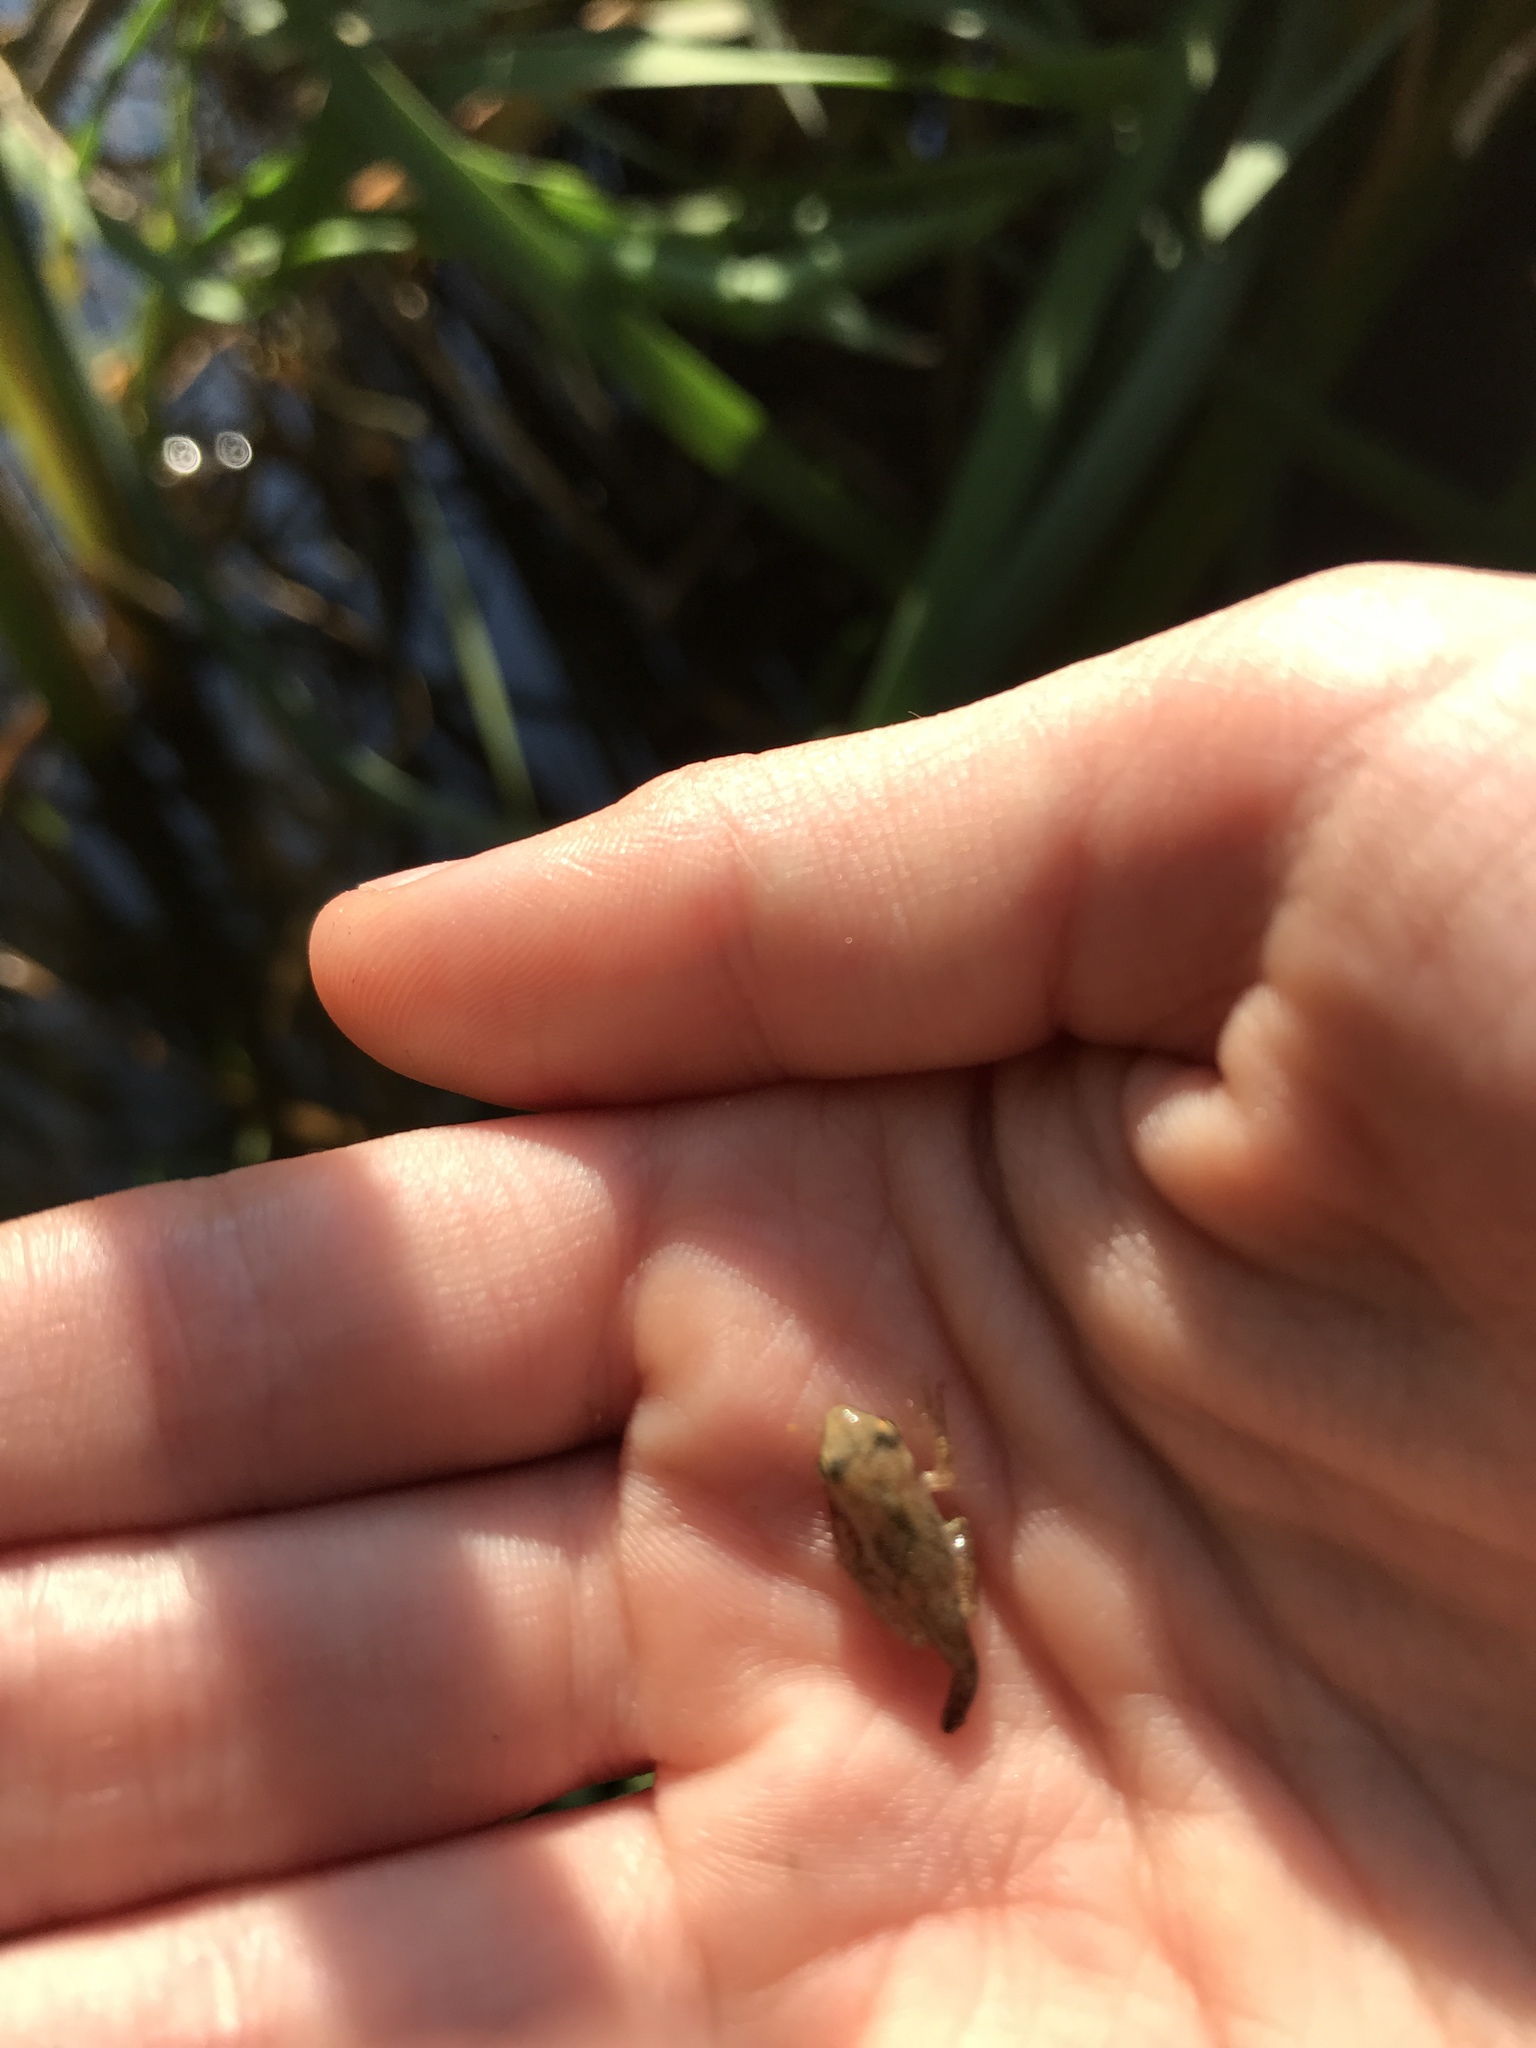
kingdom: Animalia
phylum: Chordata
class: Amphibia
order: Anura
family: Hylidae
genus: Pseudacris
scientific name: Pseudacris crucifer
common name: Spring peeper
